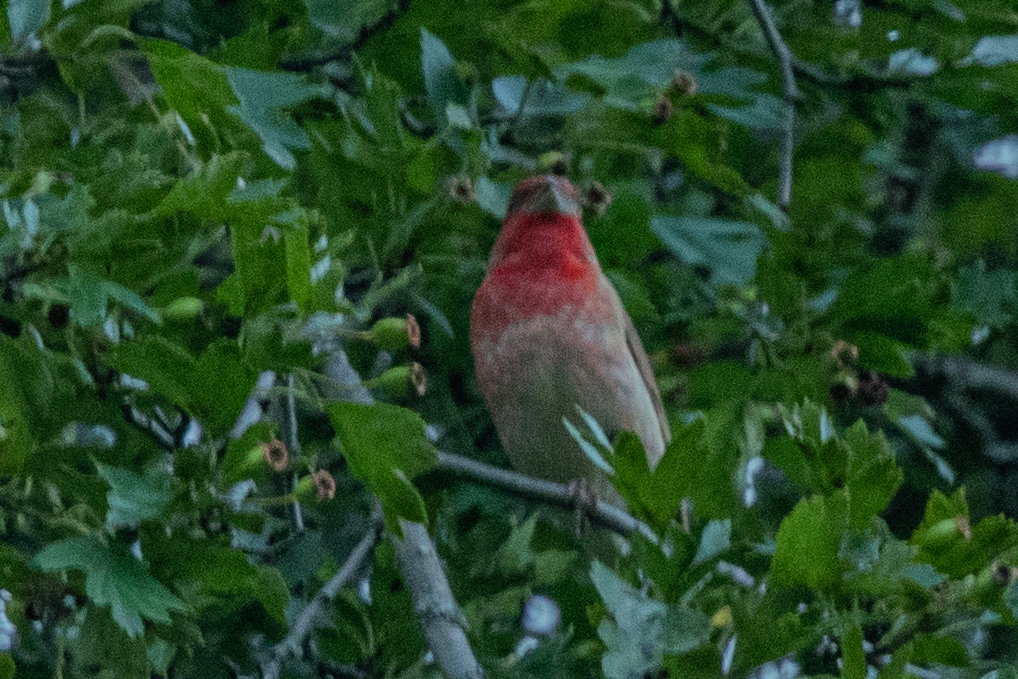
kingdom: Animalia
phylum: Chordata
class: Aves
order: Passeriformes
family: Fringillidae
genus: Carpodacus
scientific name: Carpodacus erythrinus
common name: Common rosefinch
